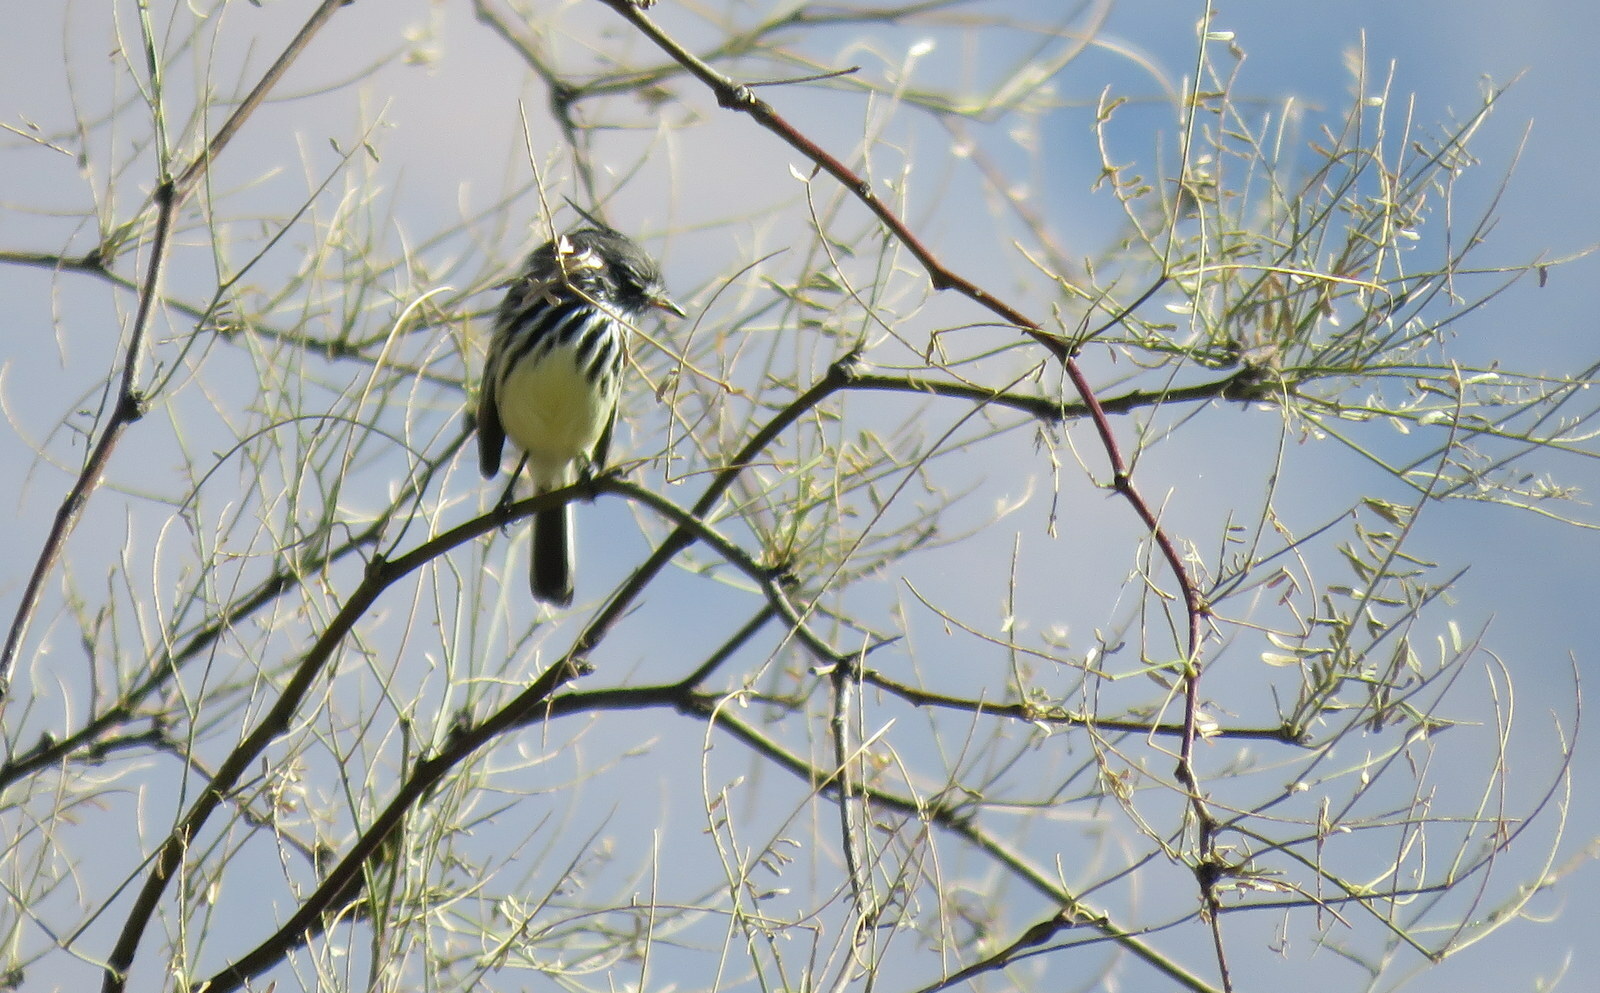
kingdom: Animalia
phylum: Chordata
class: Aves
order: Passeriformes
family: Tyrannidae
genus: Anairetes
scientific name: Anairetes flavirostris
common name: Yellow-billed tit-tyrant
